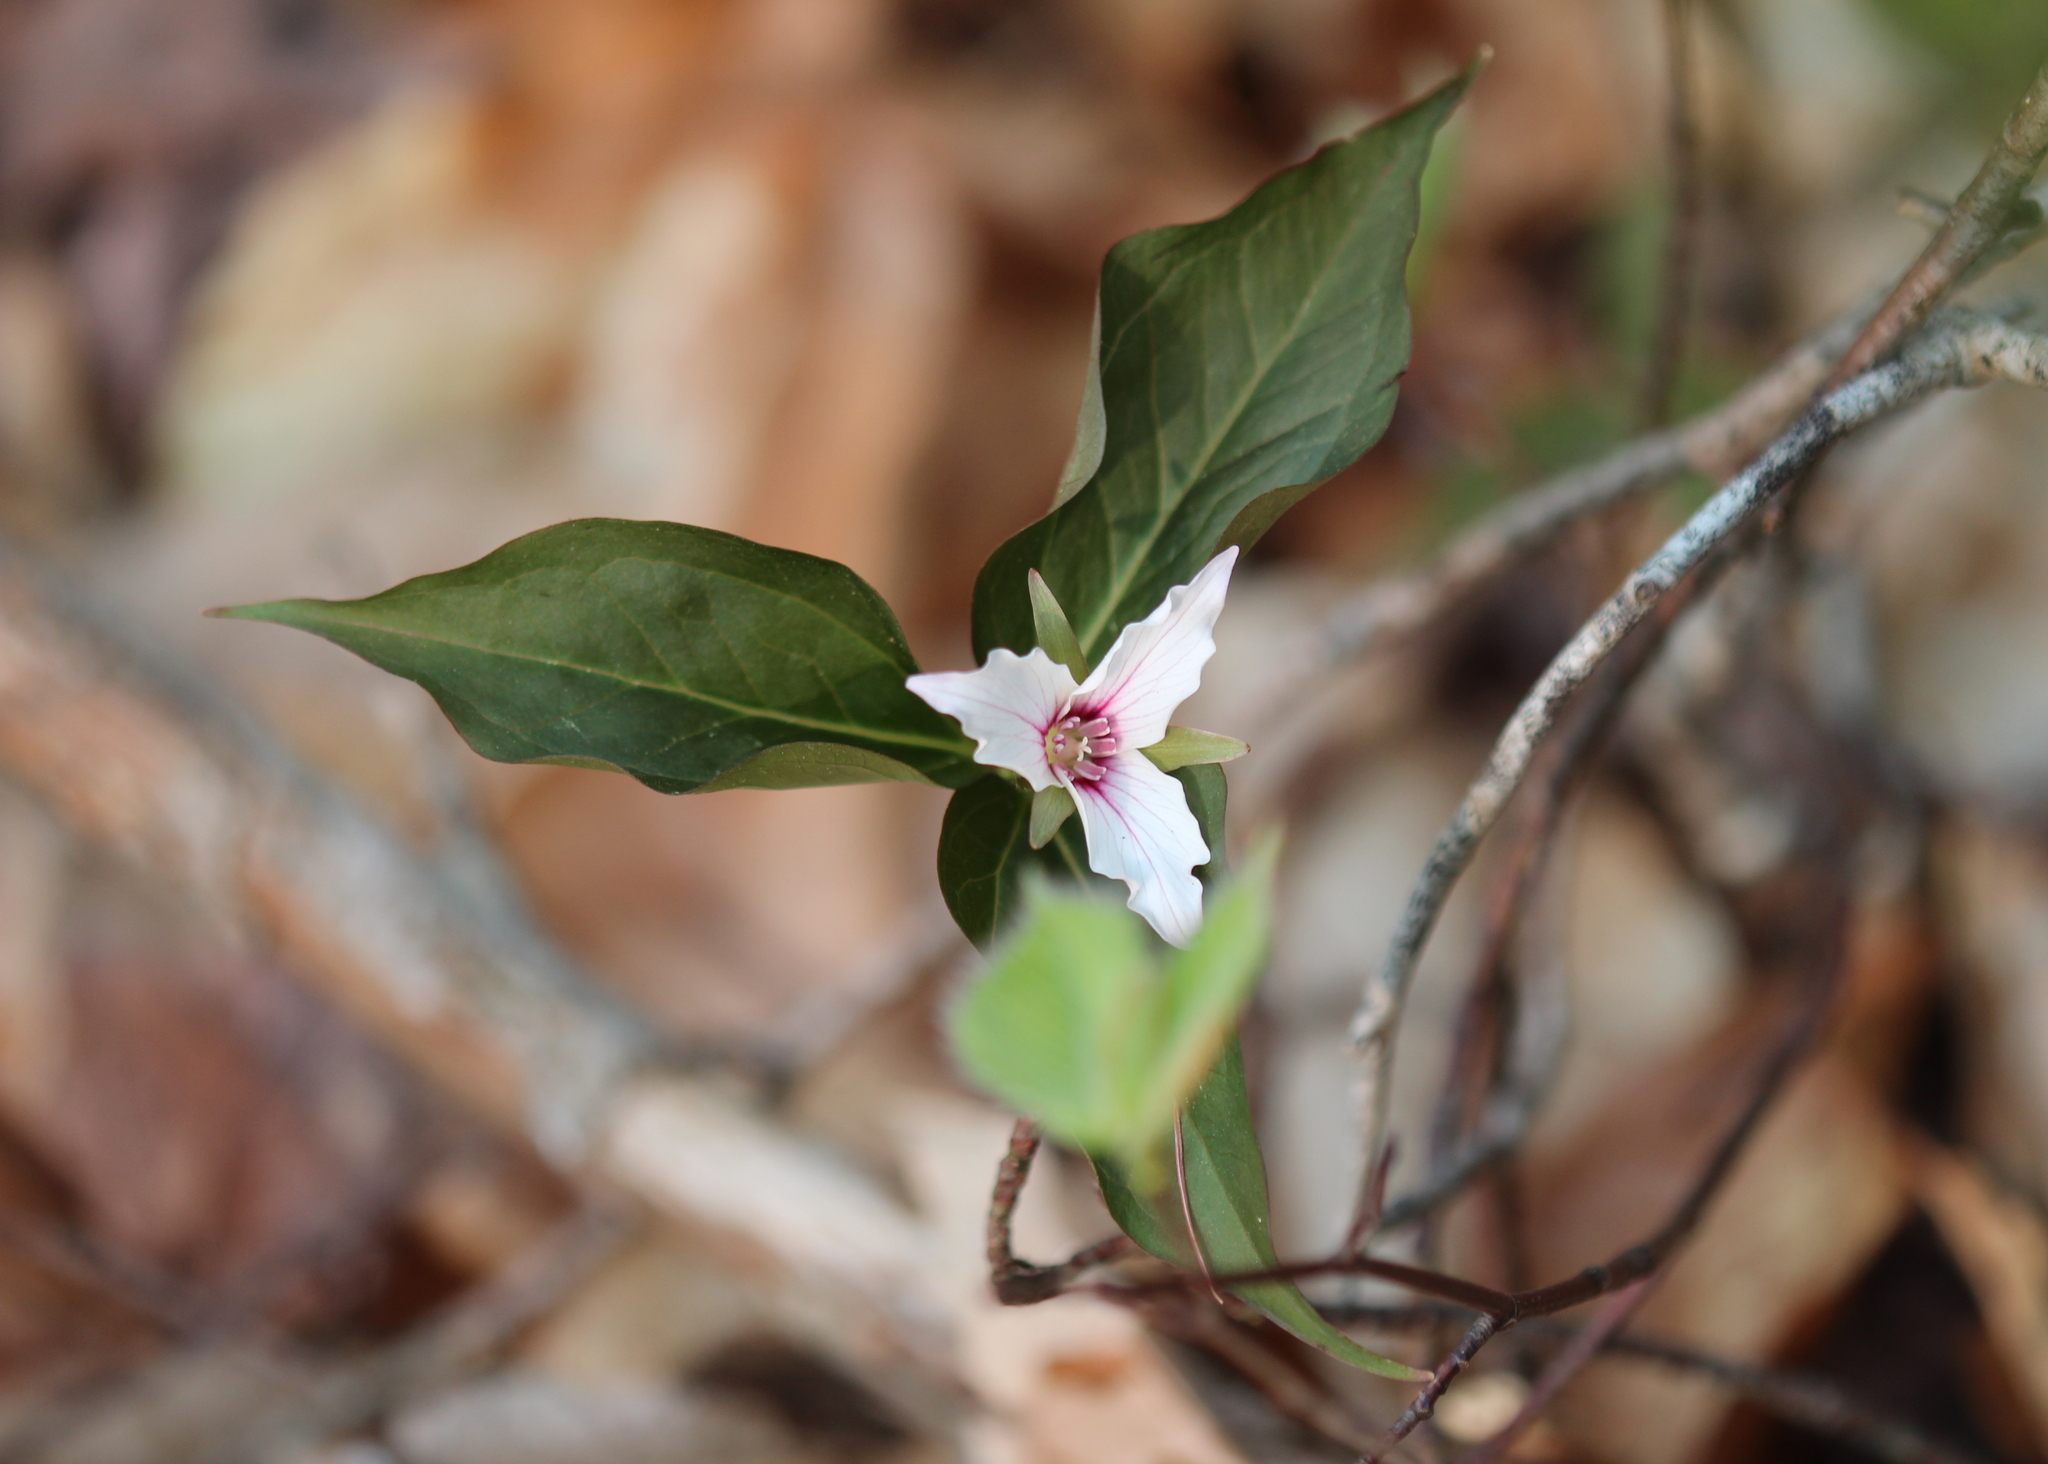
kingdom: Plantae
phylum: Tracheophyta
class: Liliopsida
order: Liliales
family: Melanthiaceae
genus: Trillium
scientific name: Trillium undulatum
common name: Paint trillium
